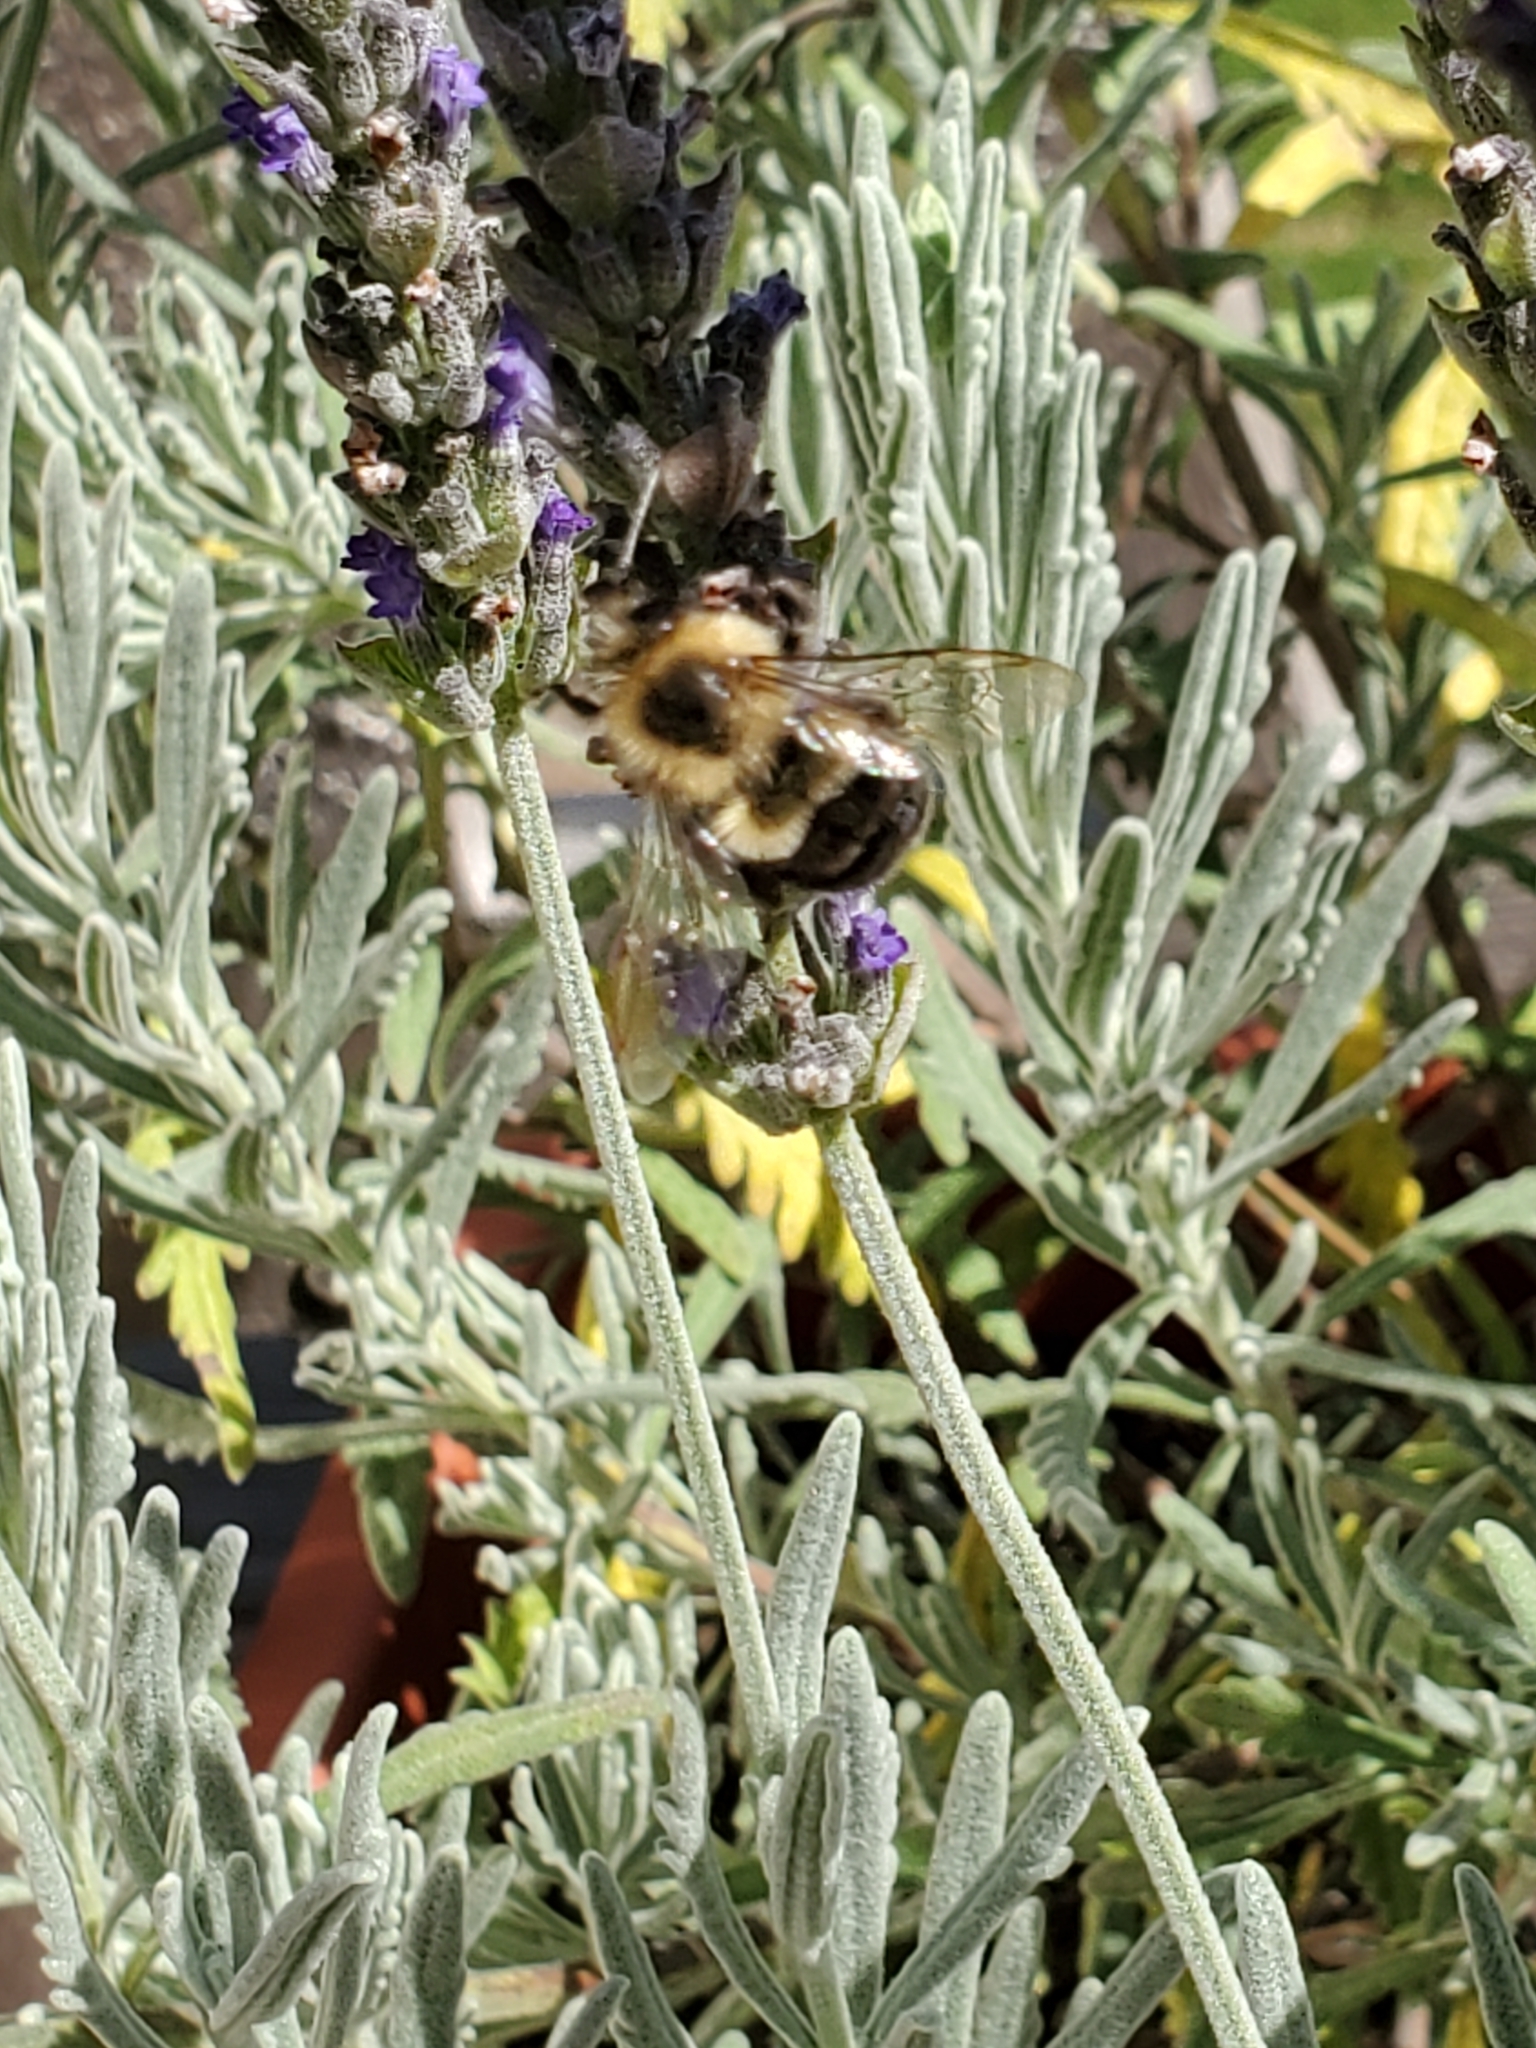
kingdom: Animalia
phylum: Arthropoda
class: Insecta
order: Hymenoptera
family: Apidae
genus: Bombus
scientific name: Bombus impatiens
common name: Common eastern bumble bee
